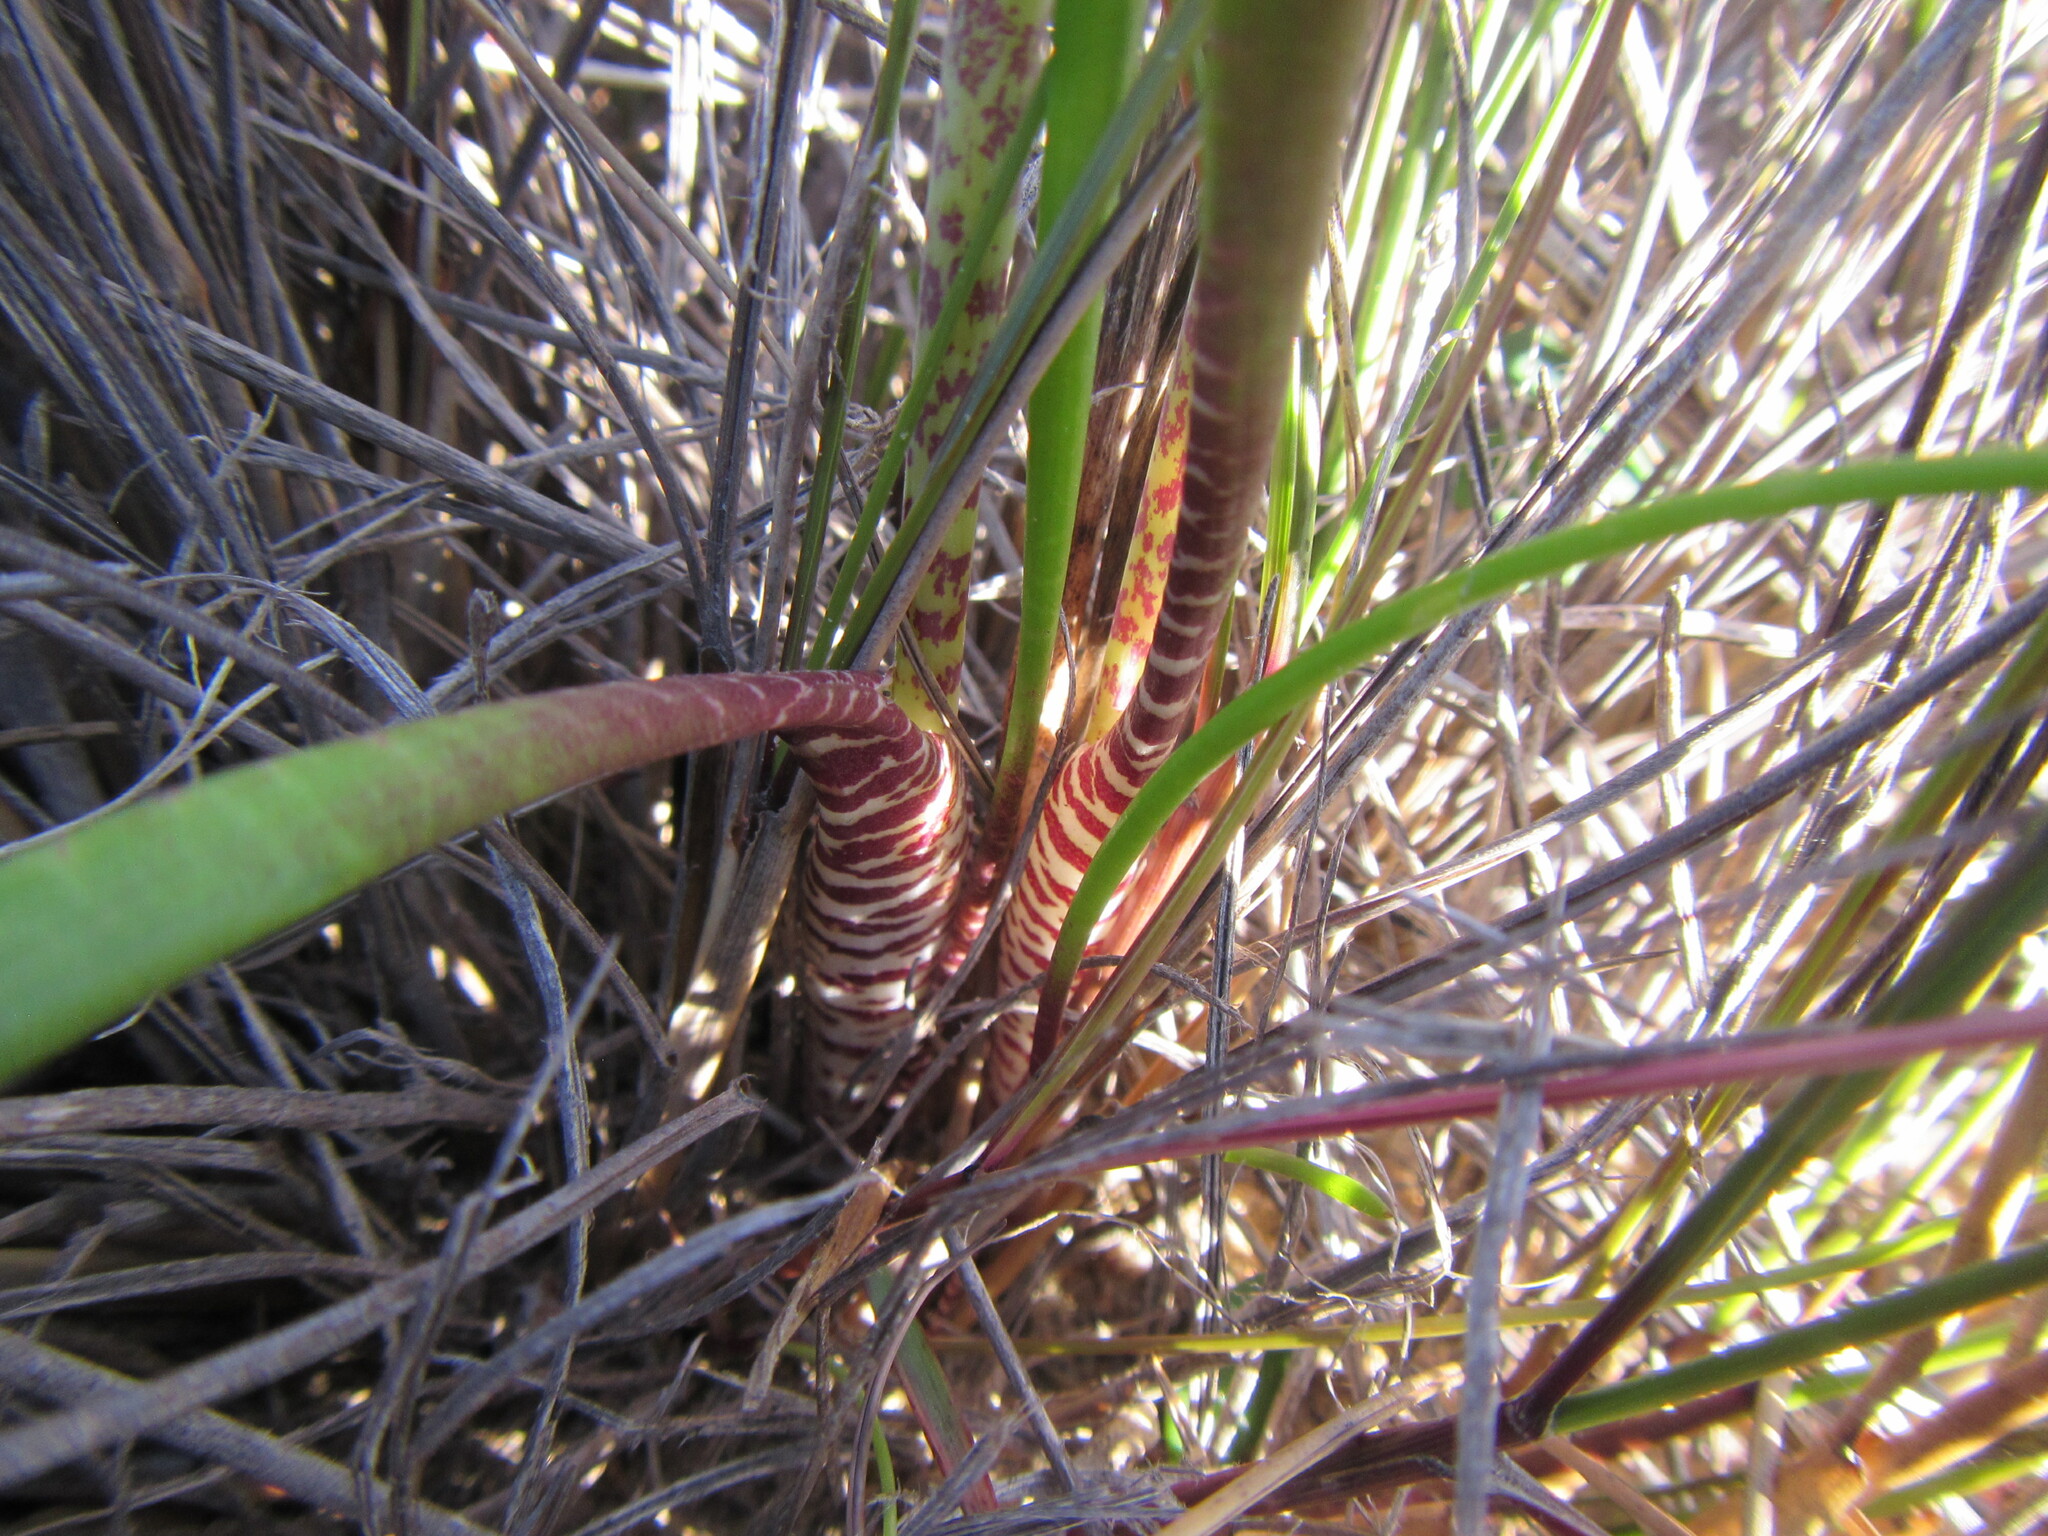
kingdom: Plantae
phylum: Tracheophyta
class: Liliopsida
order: Asparagales
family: Asparagaceae
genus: Lachenalia
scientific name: Lachenalia unifolia
